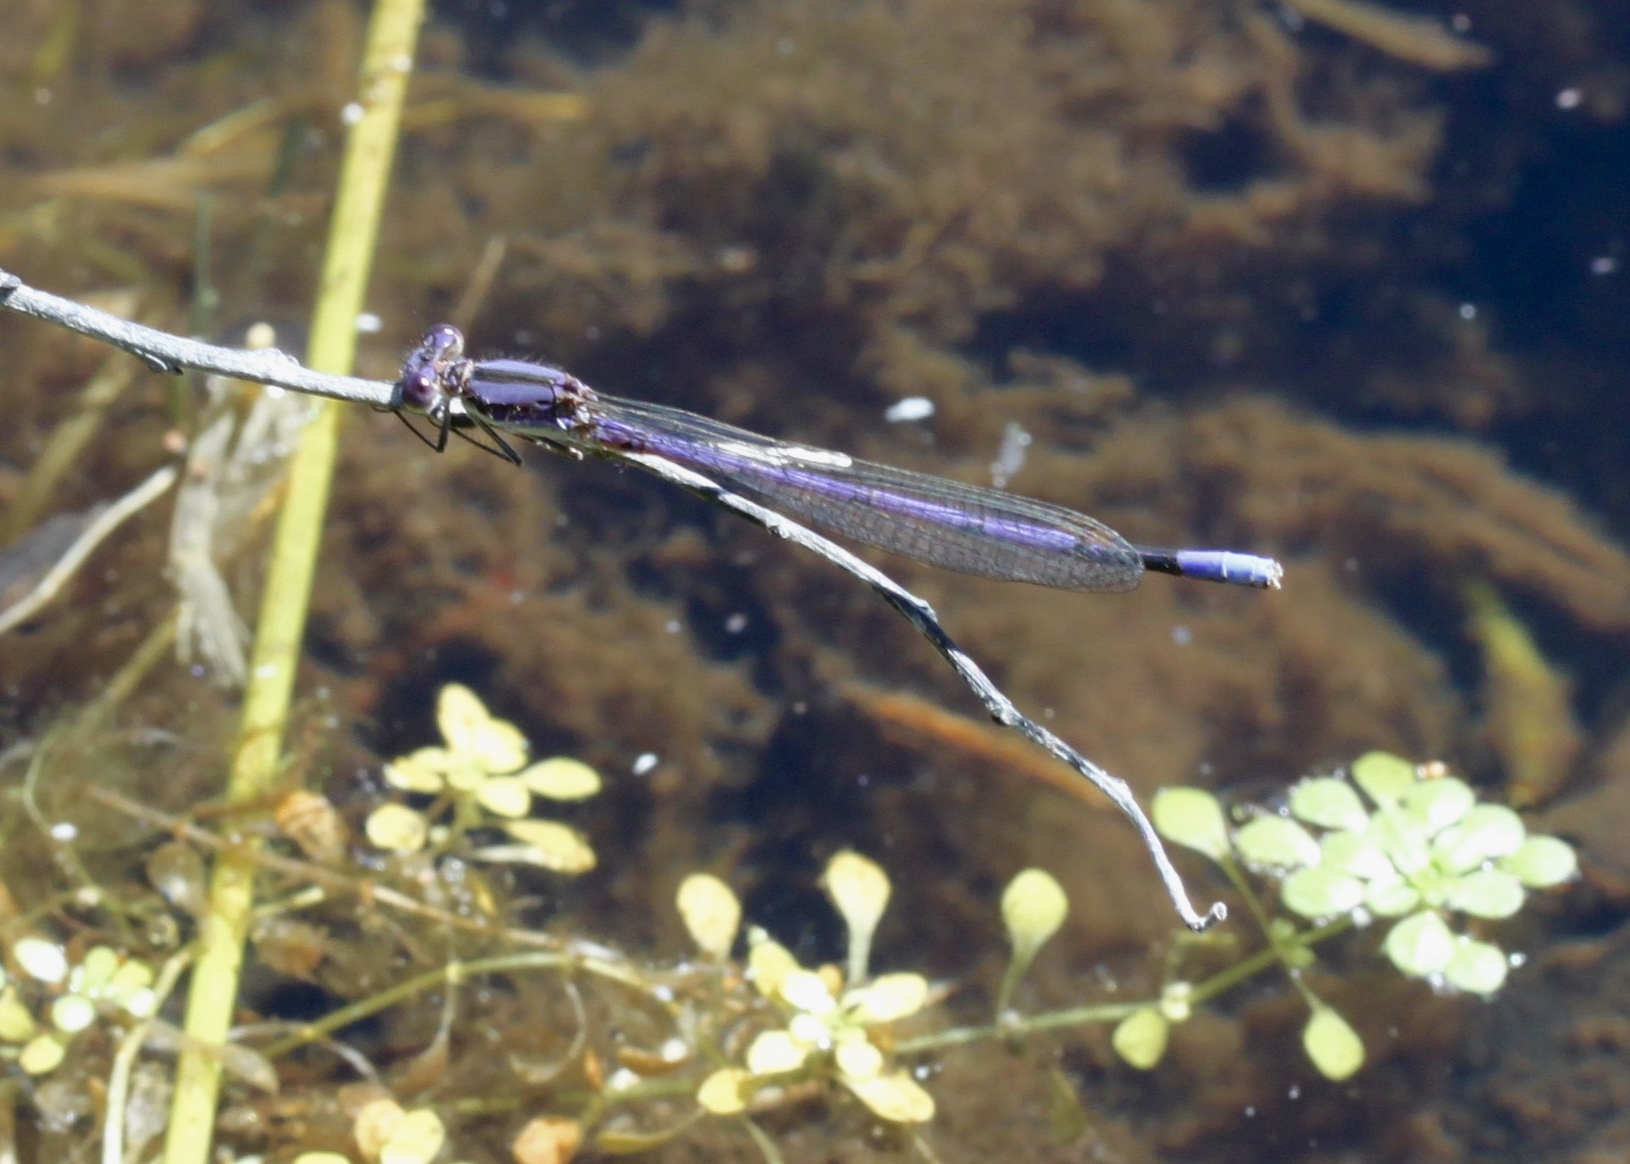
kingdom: Animalia
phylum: Arthropoda
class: Insecta
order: Odonata
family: Coenagrionidae
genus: Argia
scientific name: Argia fumipennis
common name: Variable dancer
